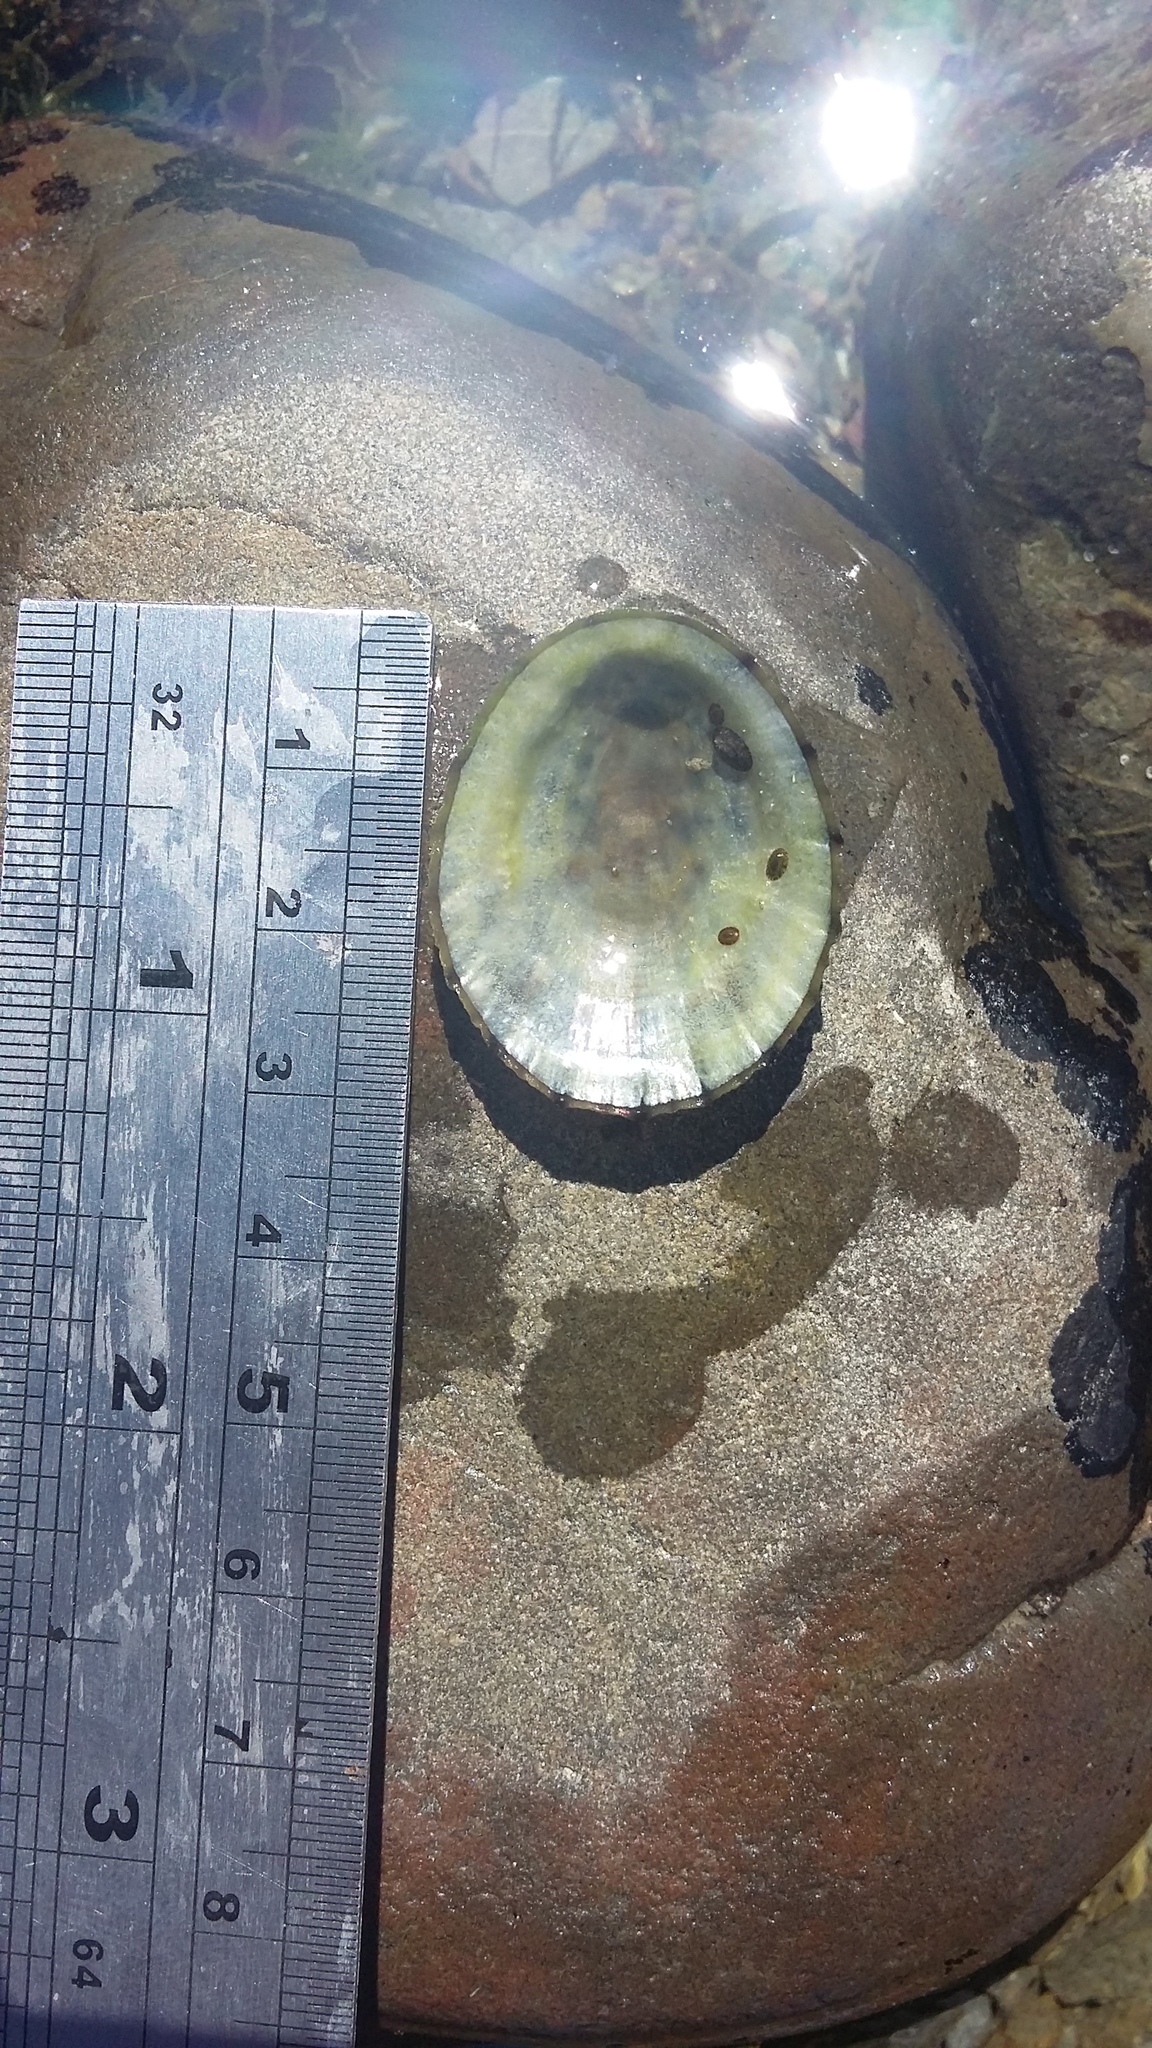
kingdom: Animalia
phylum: Mollusca
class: Gastropoda
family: Nacellidae
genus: Cellana
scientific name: Cellana radians
